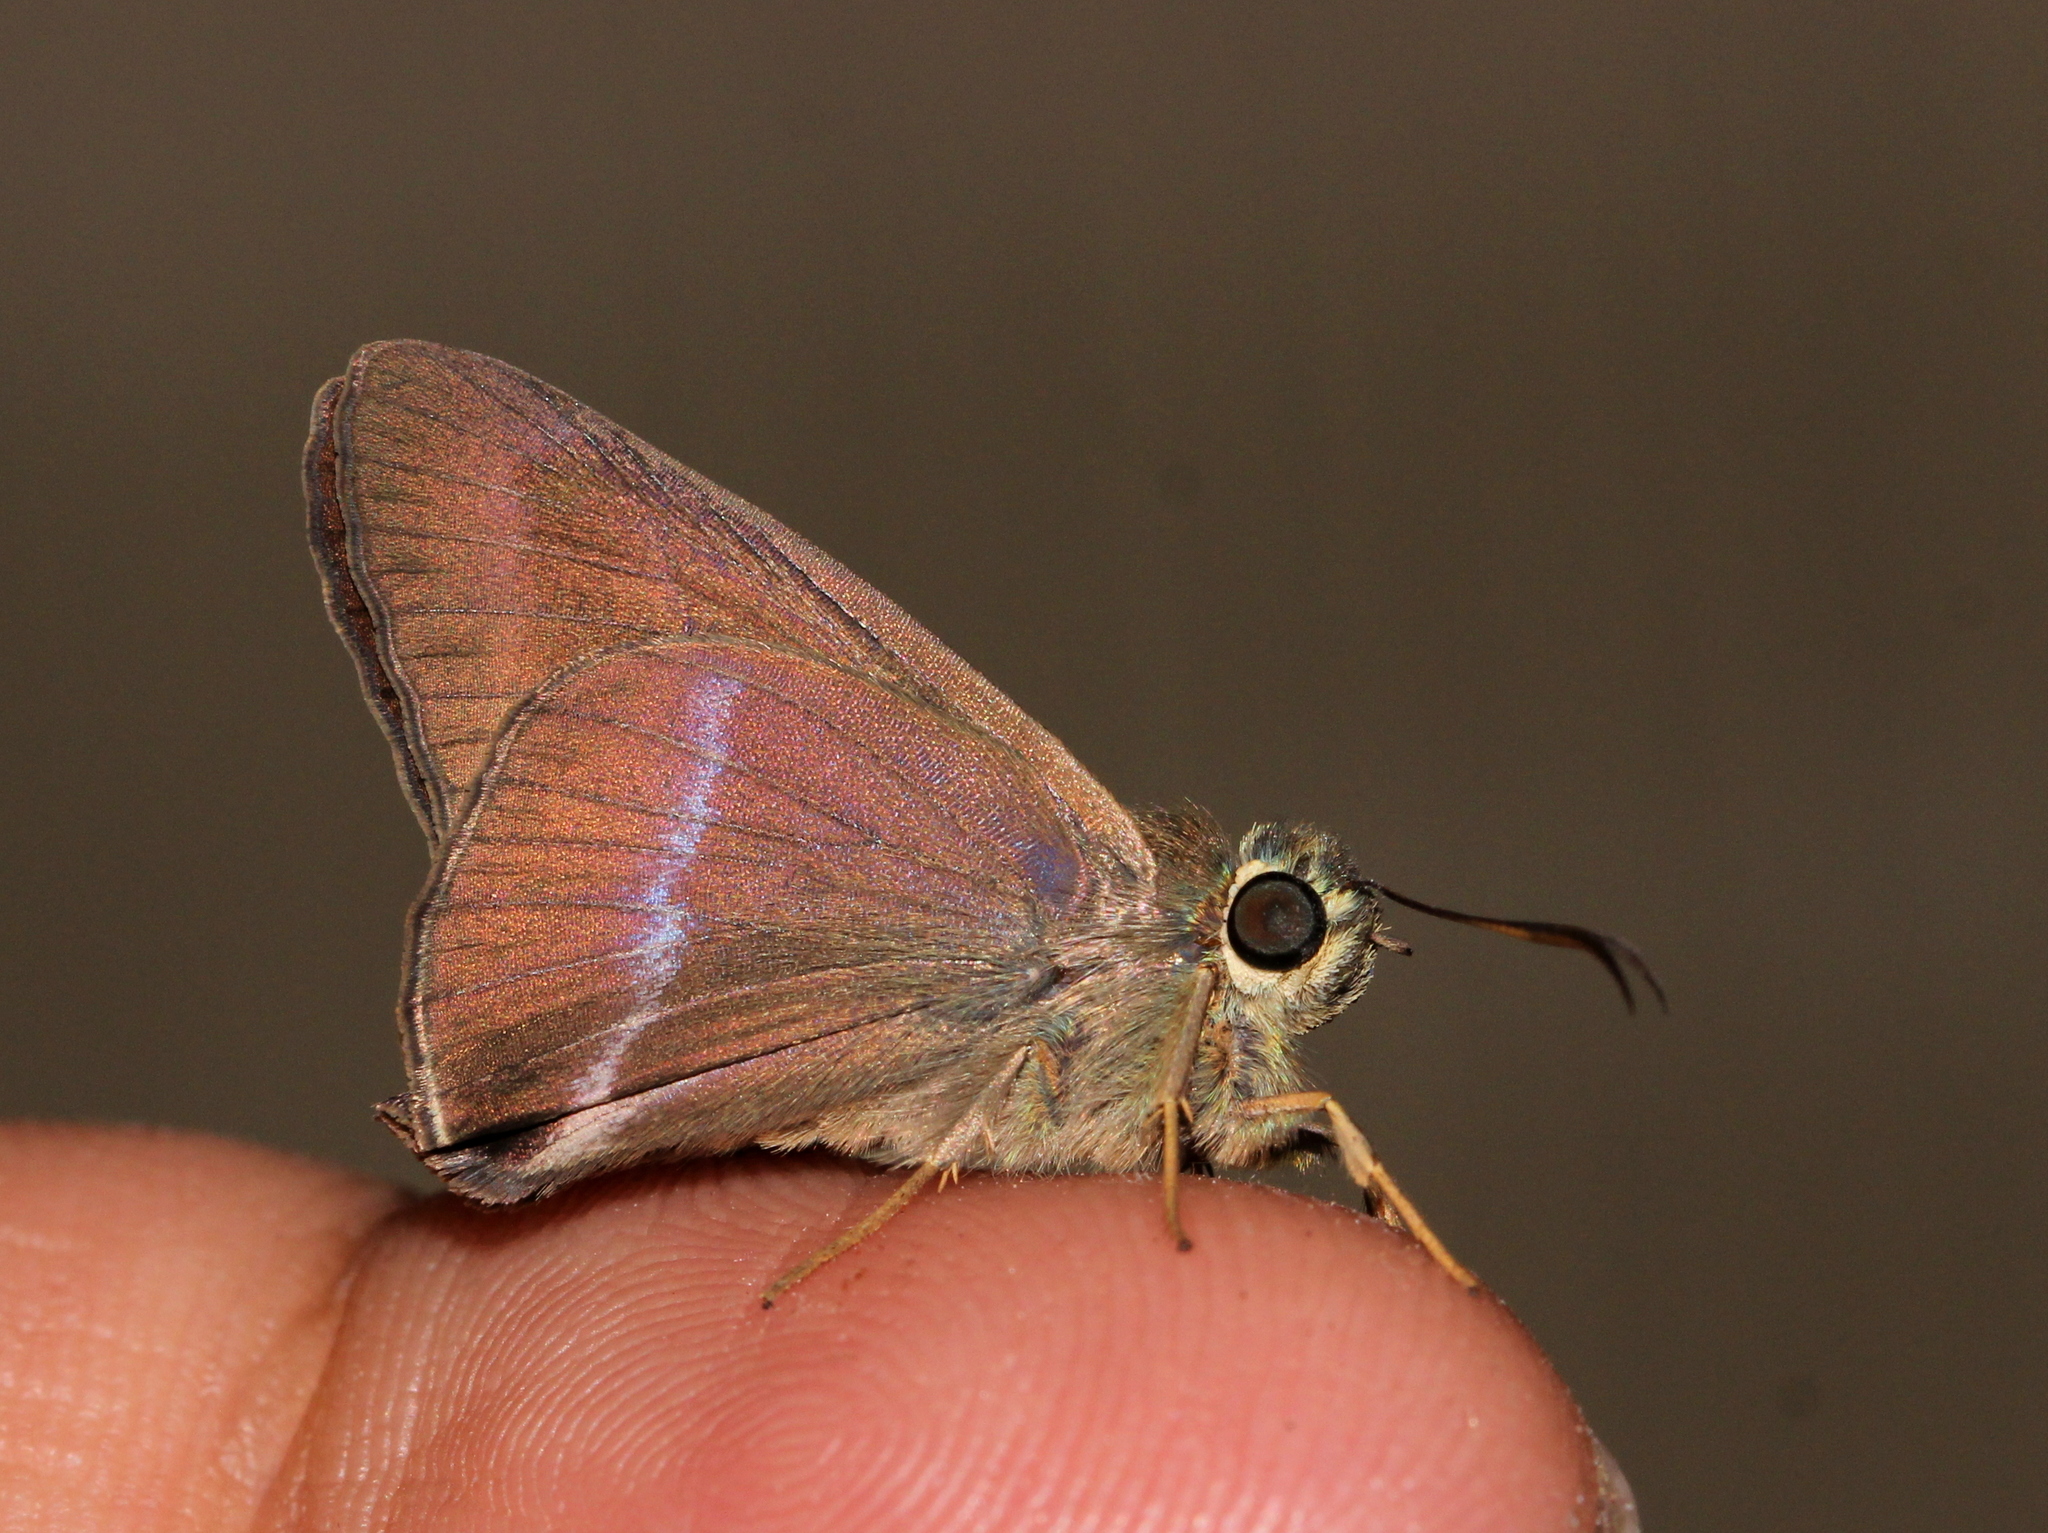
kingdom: Animalia
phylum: Arthropoda
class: Insecta
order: Lepidoptera
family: Hesperiidae
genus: Hasora
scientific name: Hasora chromus
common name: Common banded awl
